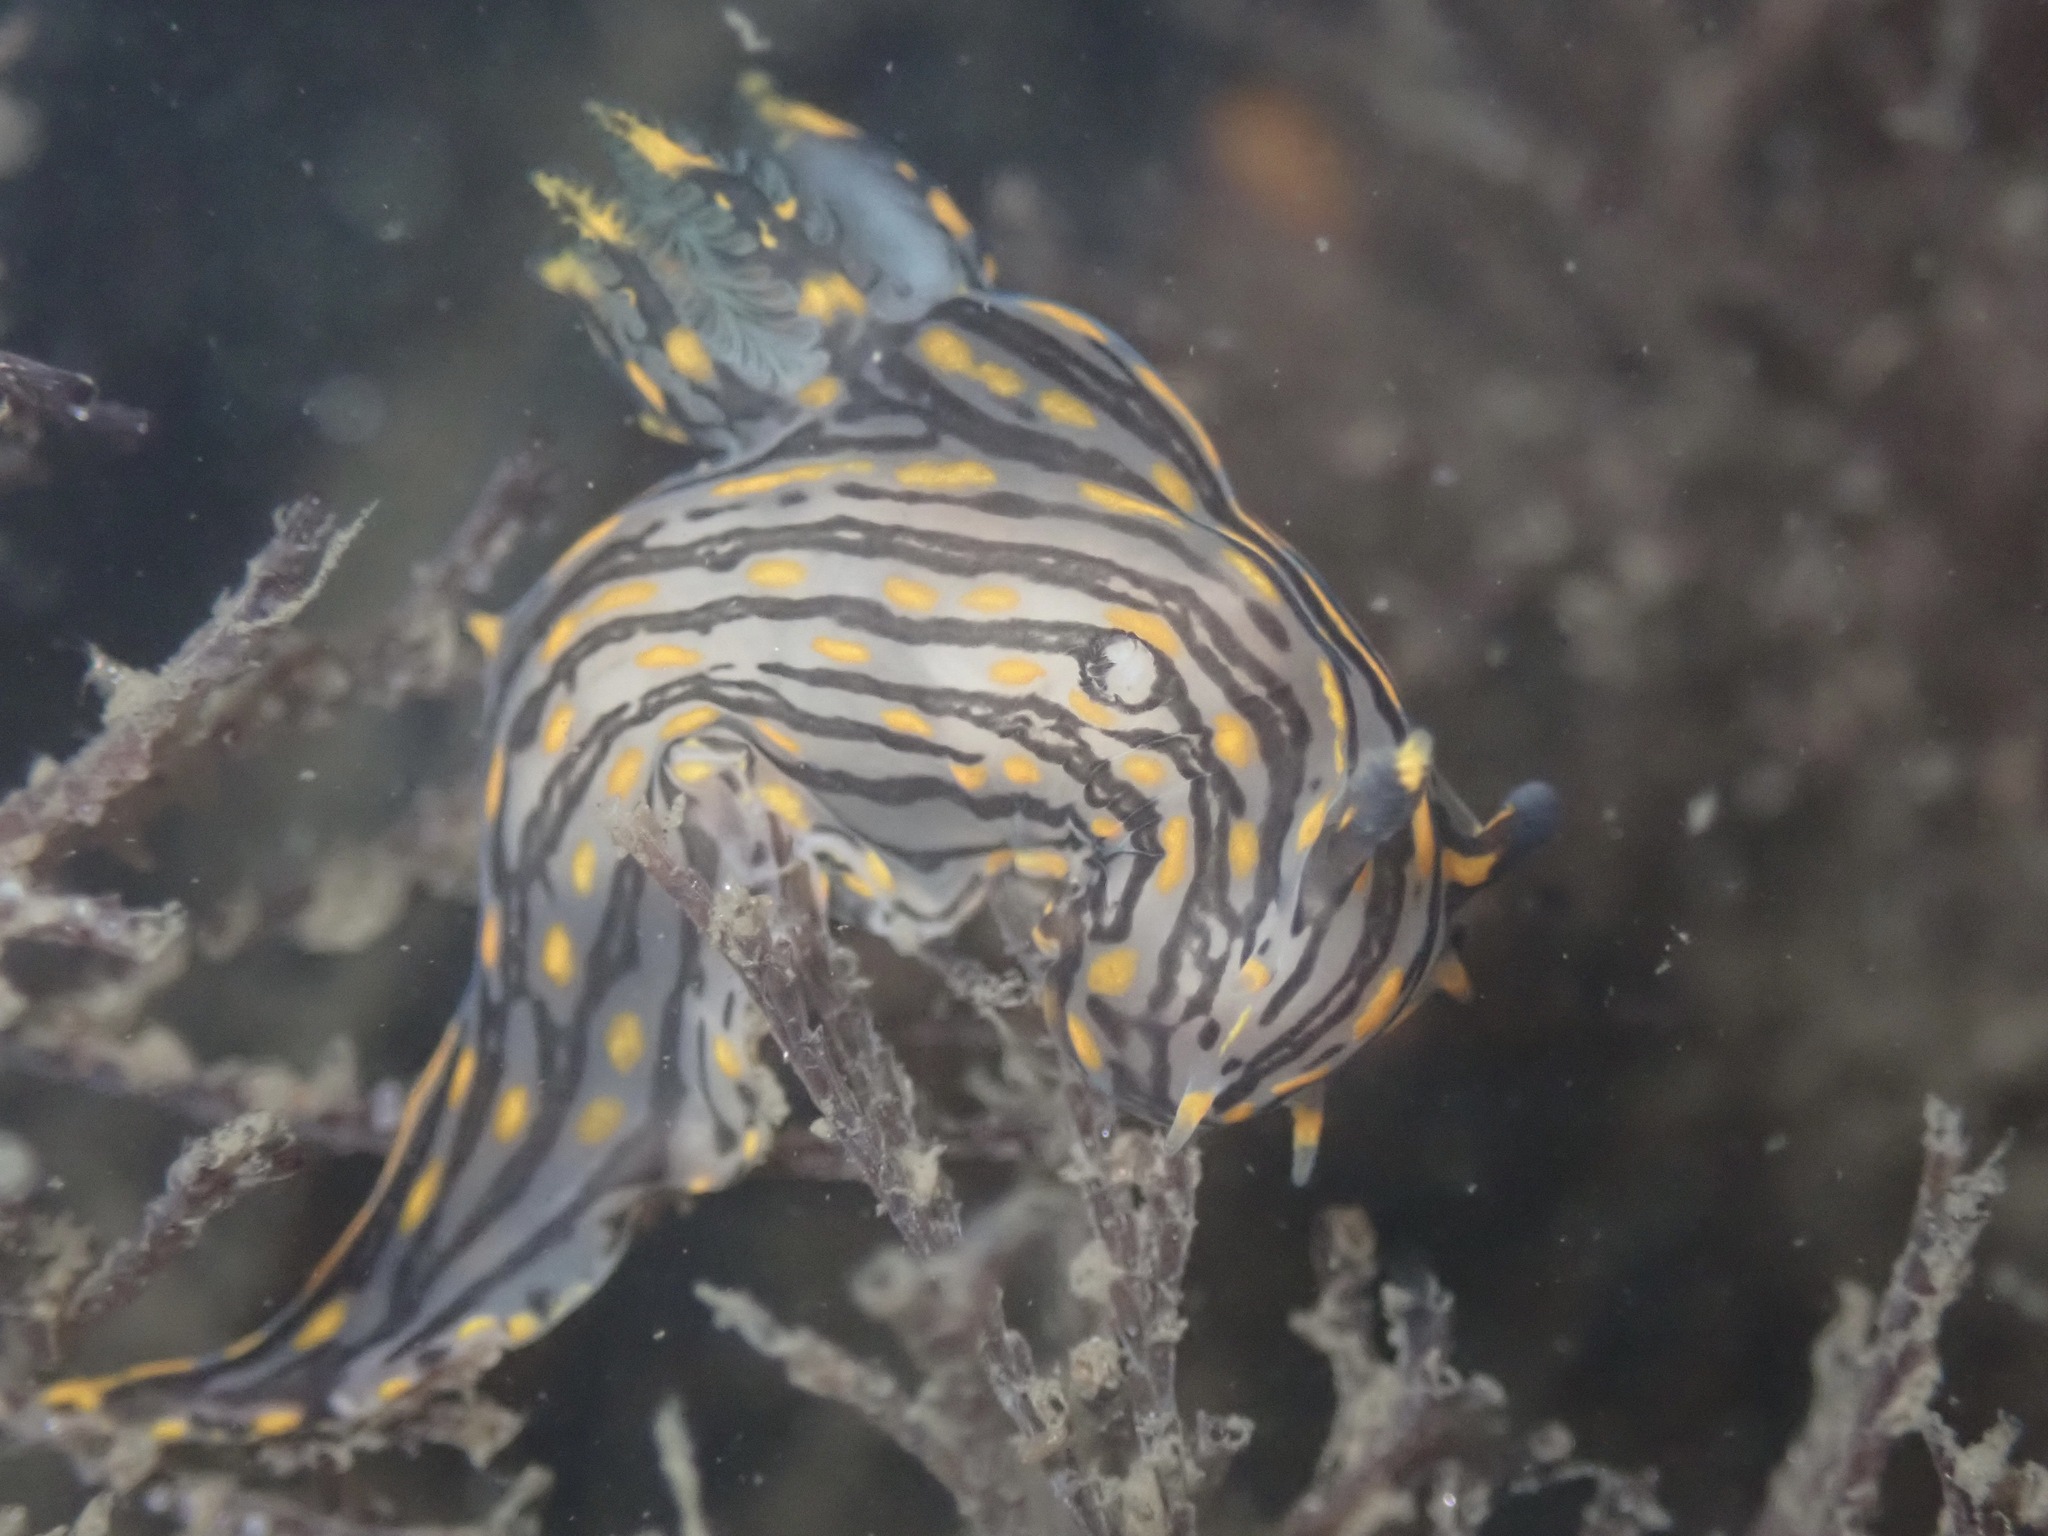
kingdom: Animalia
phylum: Mollusca
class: Gastropoda
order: Nudibranchia
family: Polyceridae
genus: Polycera
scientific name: Polycera atra
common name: Orange-spike polycera
